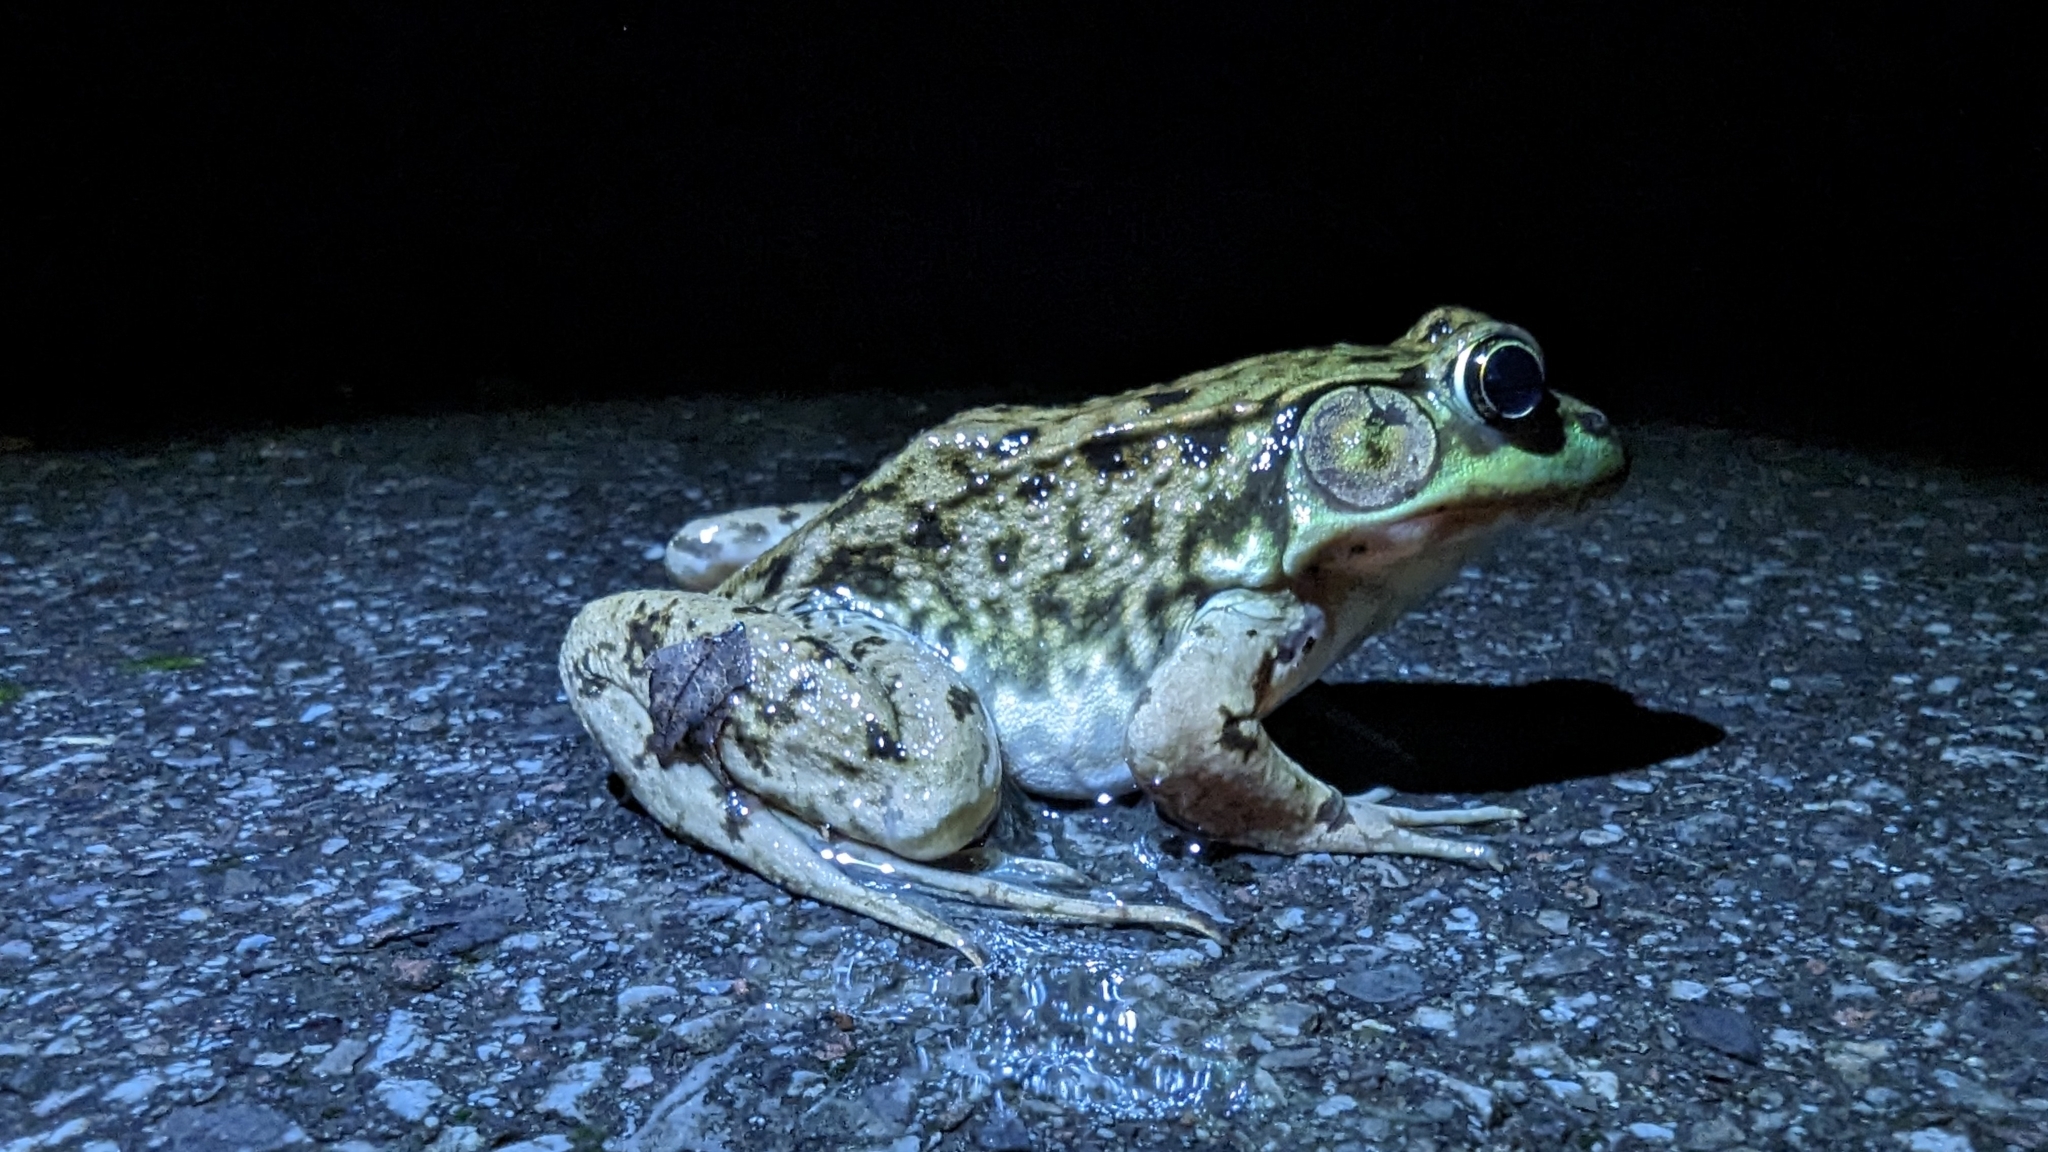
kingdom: Animalia
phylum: Chordata
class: Amphibia
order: Anura
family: Ranidae
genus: Lithobates
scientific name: Lithobates clamitans
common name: Green frog
